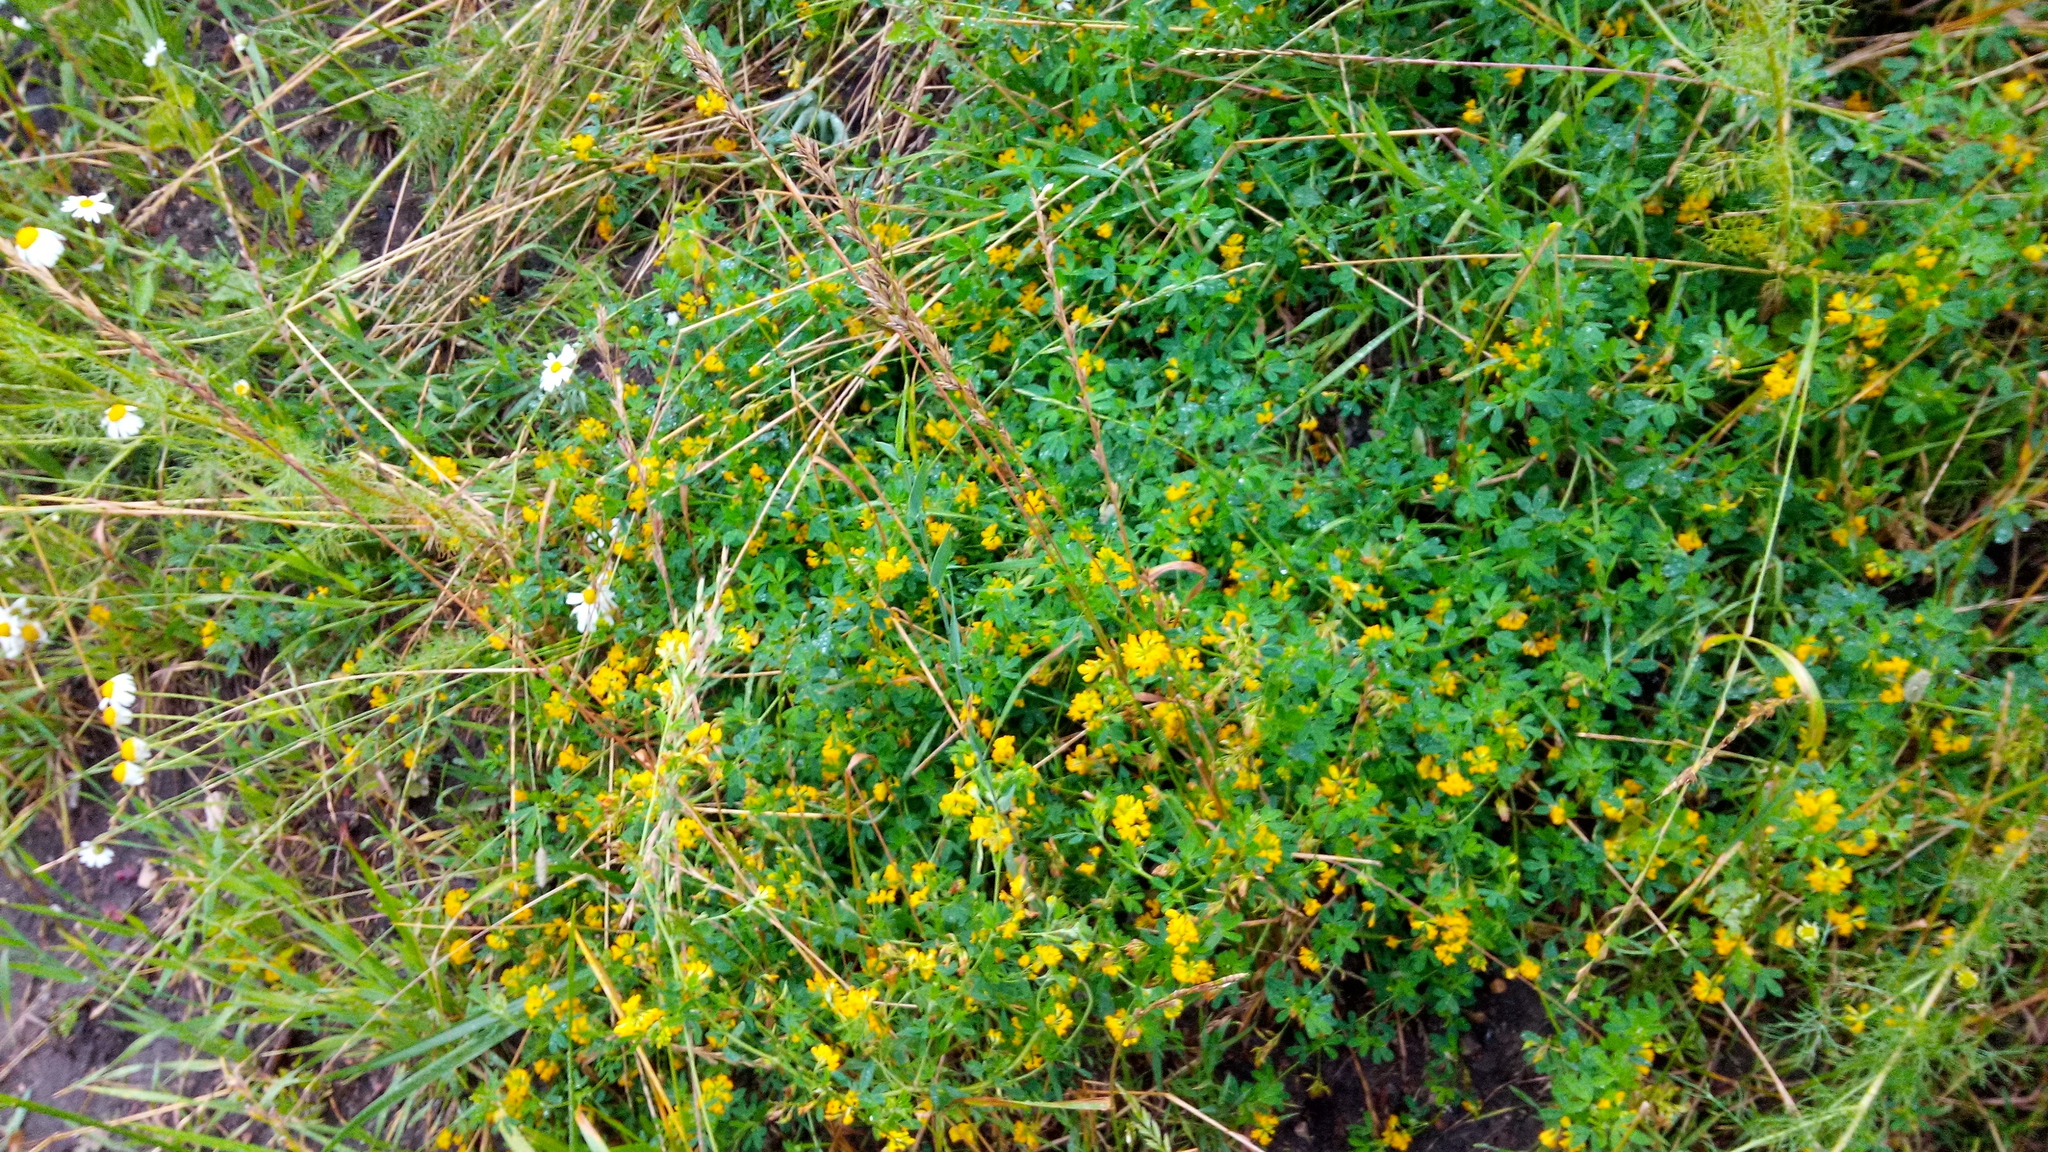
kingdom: Plantae
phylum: Tracheophyta
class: Magnoliopsida
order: Fabales
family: Fabaceae
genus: Medicago
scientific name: Medicago falcata
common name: Sickle medick
